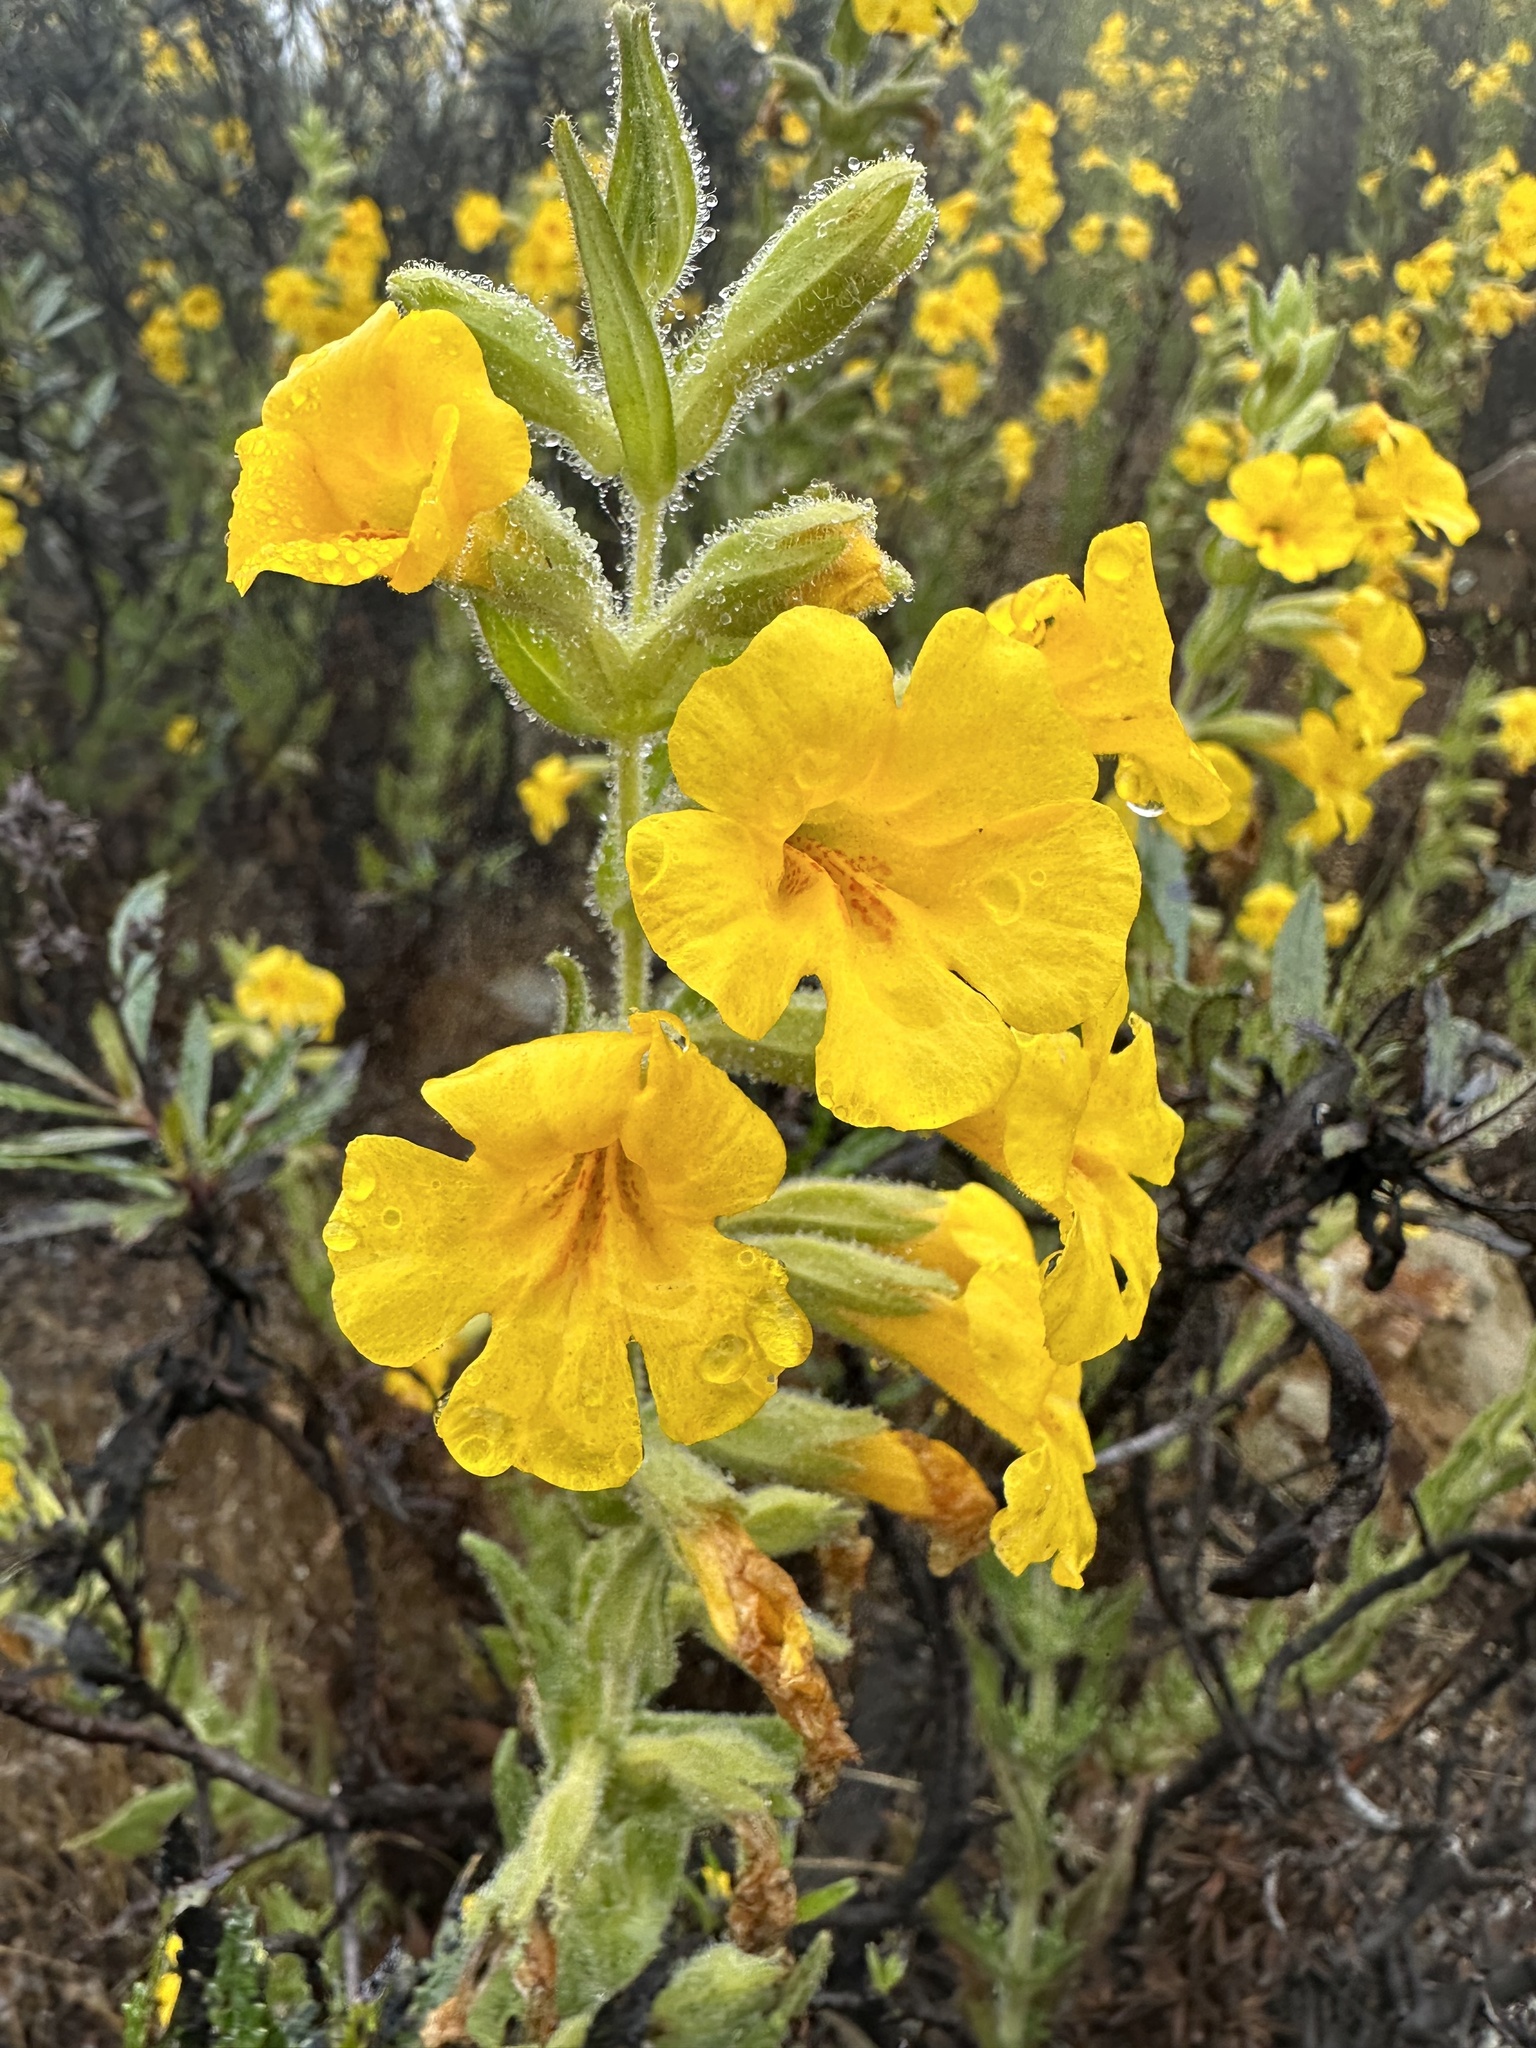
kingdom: Plantae
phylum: Tracheophyta
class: Magnoliopsida
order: Lamiales
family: Phrymaceae
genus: Diplacus
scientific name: Diplacus clevelandii
